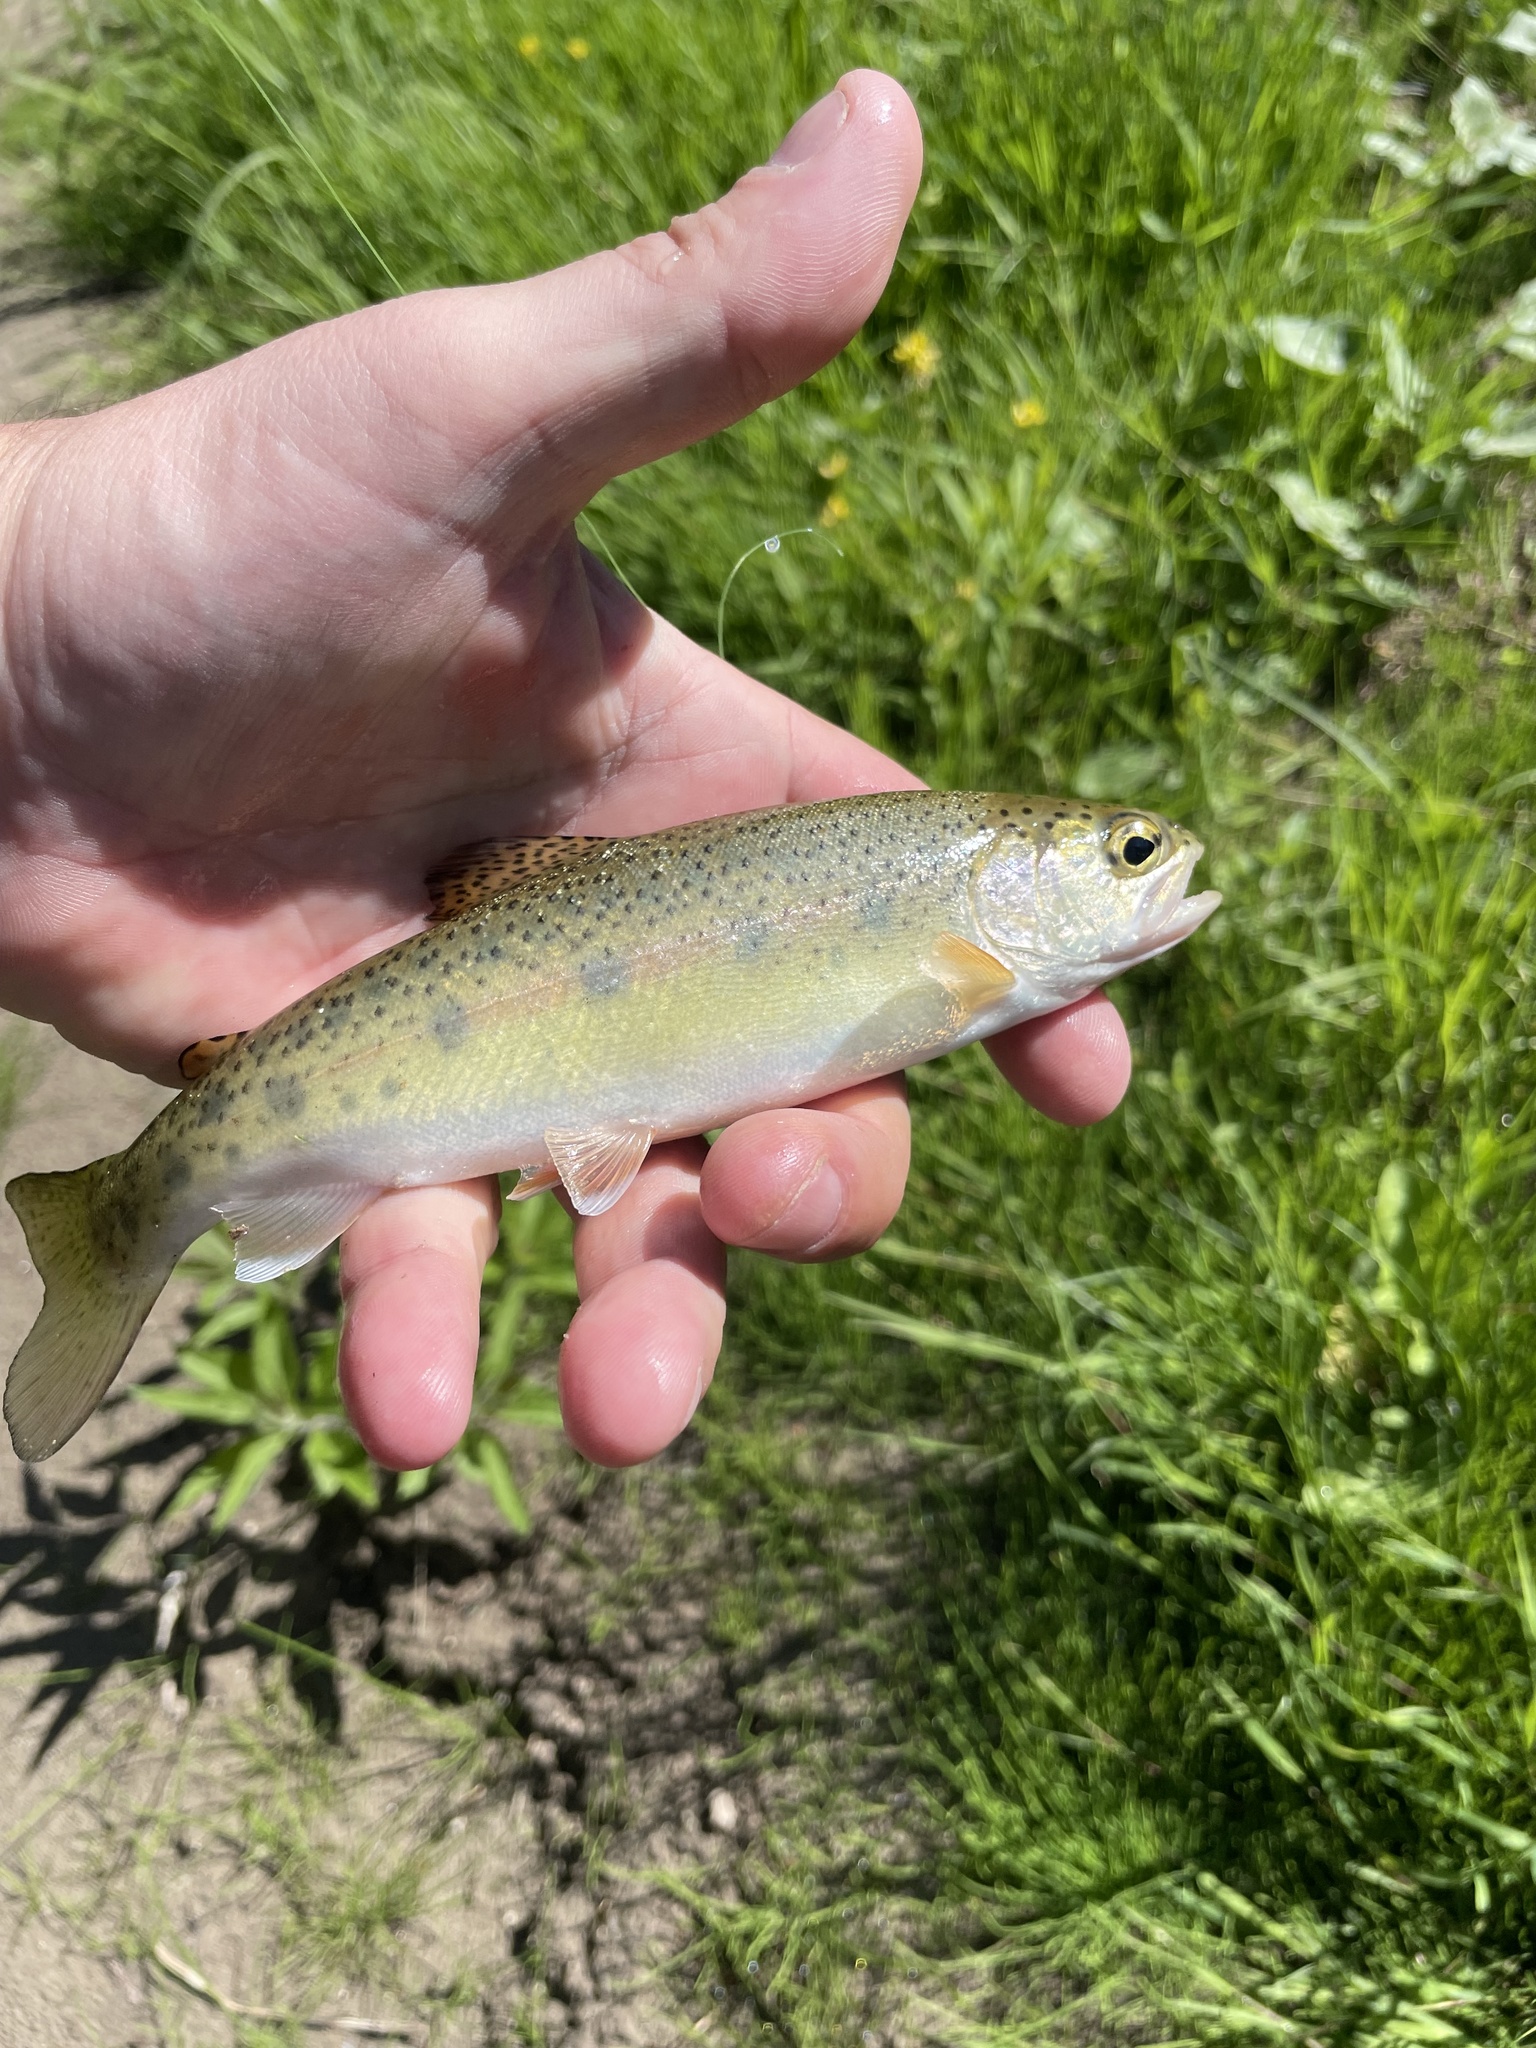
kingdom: Animalia
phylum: Chordata
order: Salmoniformes
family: Salmonidae
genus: Oncorhynchus
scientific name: Oncorhynchus mykiss
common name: Rainbow trout
